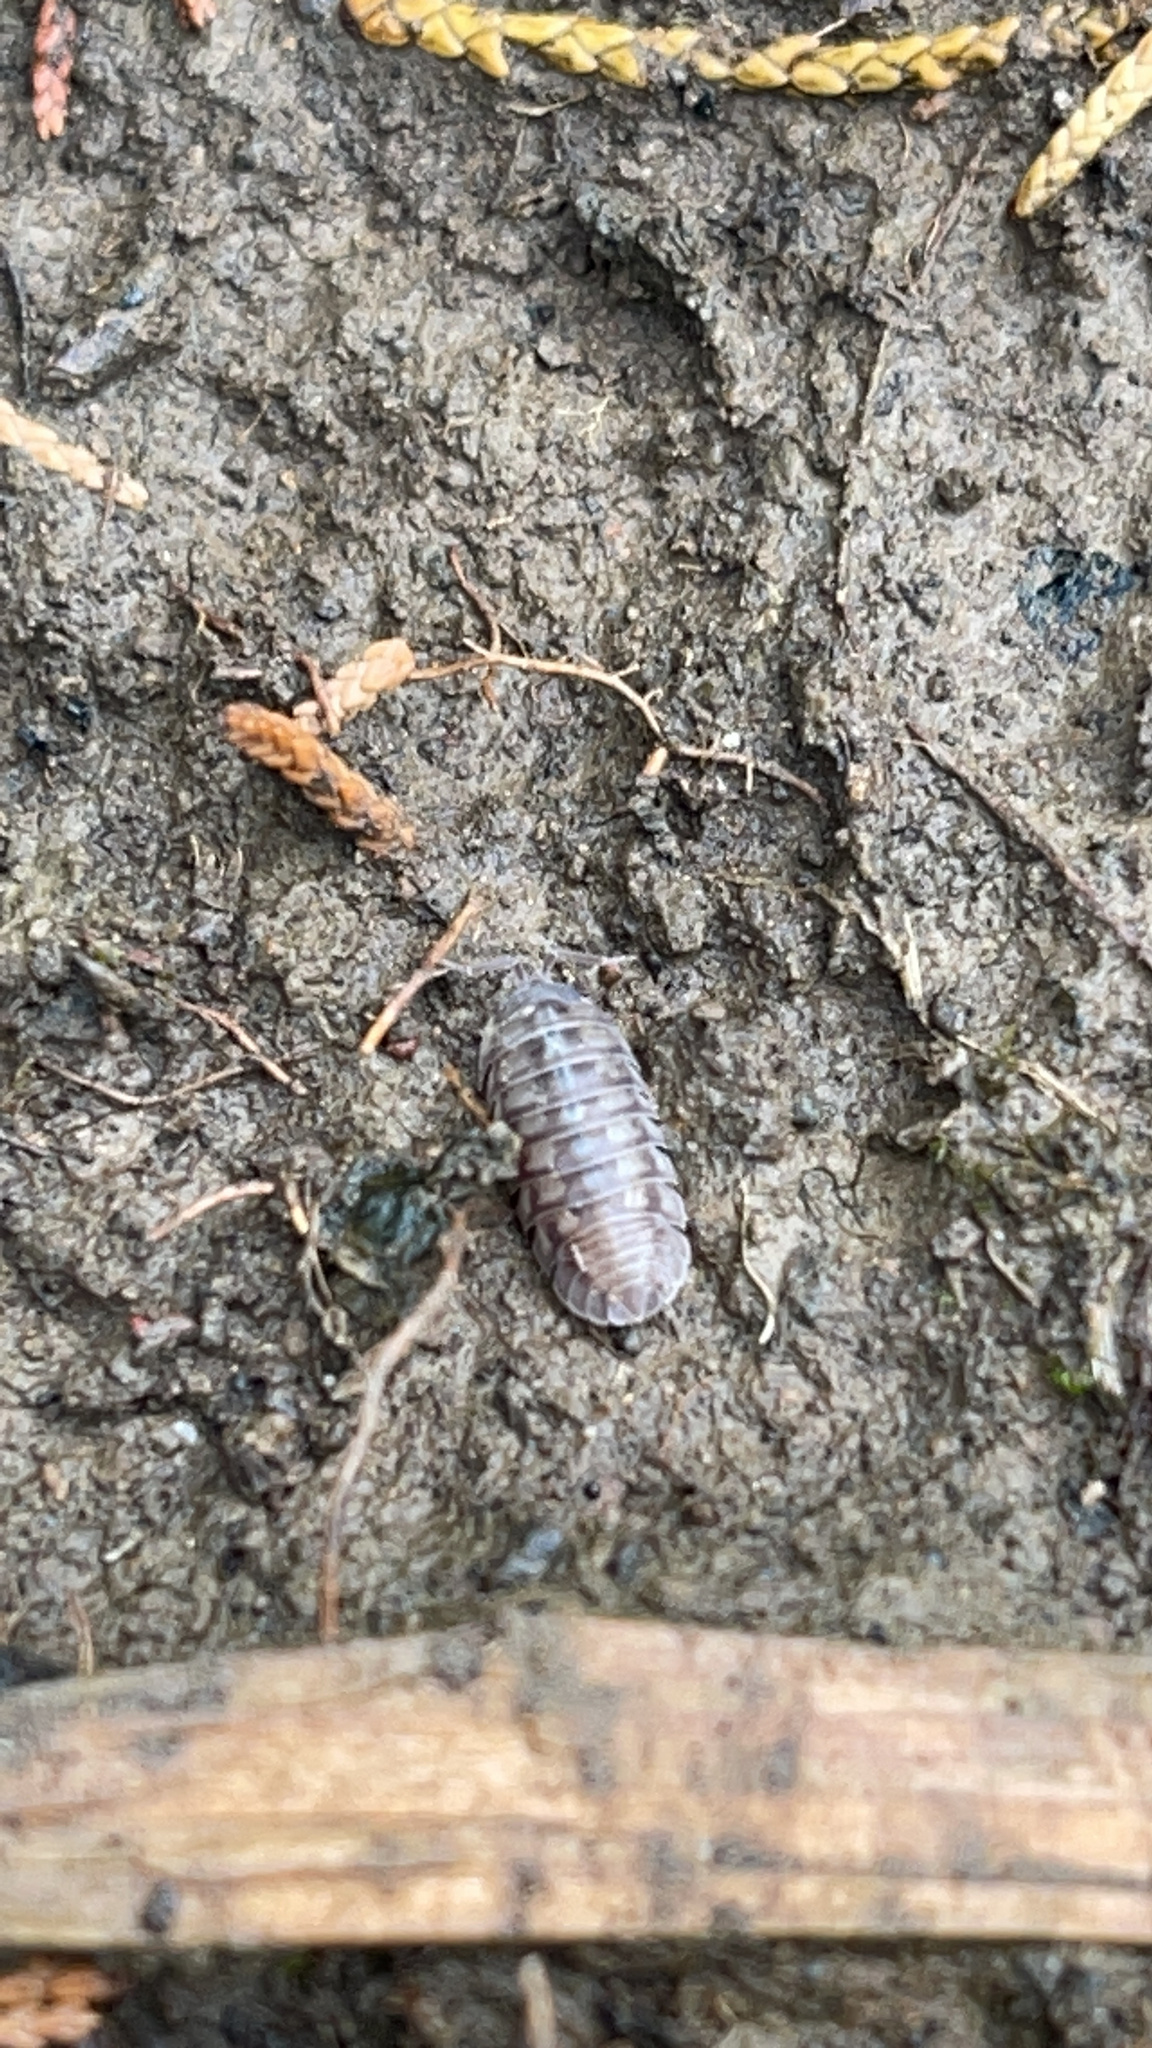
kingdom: Animalia
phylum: Arthropoda
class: Malacostraca
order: Isopoda
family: Armadillidiidae
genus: Armadillidium
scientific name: Armadillidium nasatum
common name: Isopod
